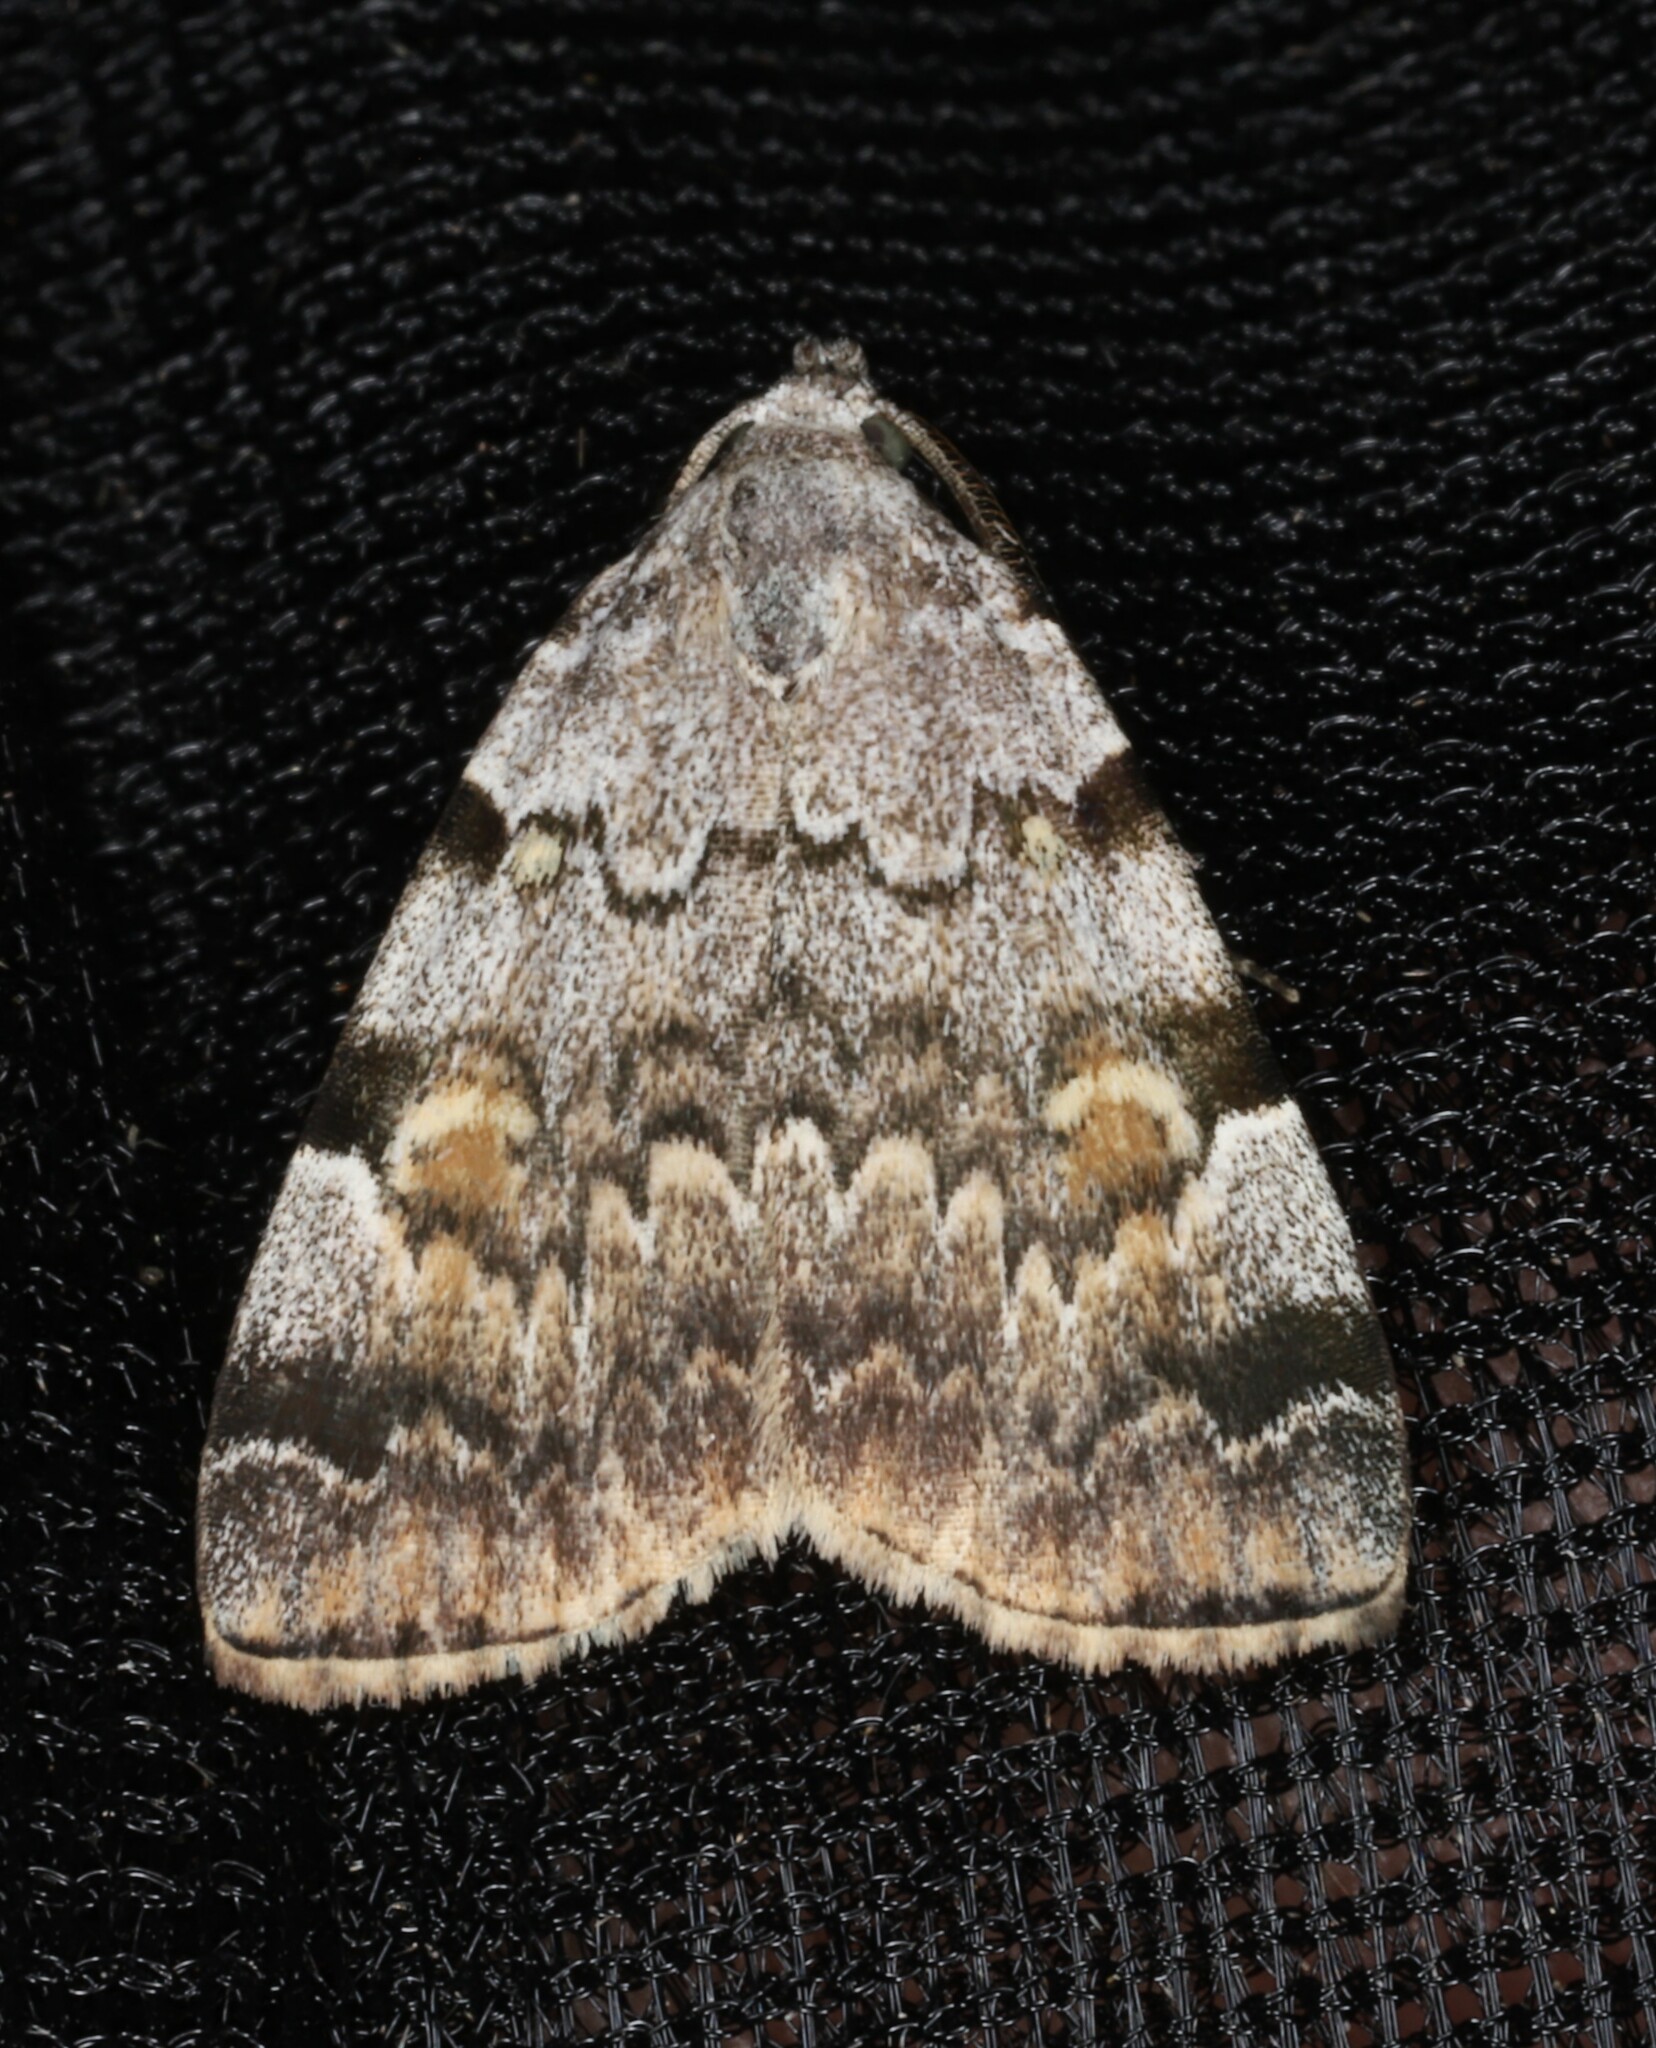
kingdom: Animalia
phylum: Arthropoda
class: Insecta
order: Lepidoptera
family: Erebidae
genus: Idia
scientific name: Idia americalis
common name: American idia moth
